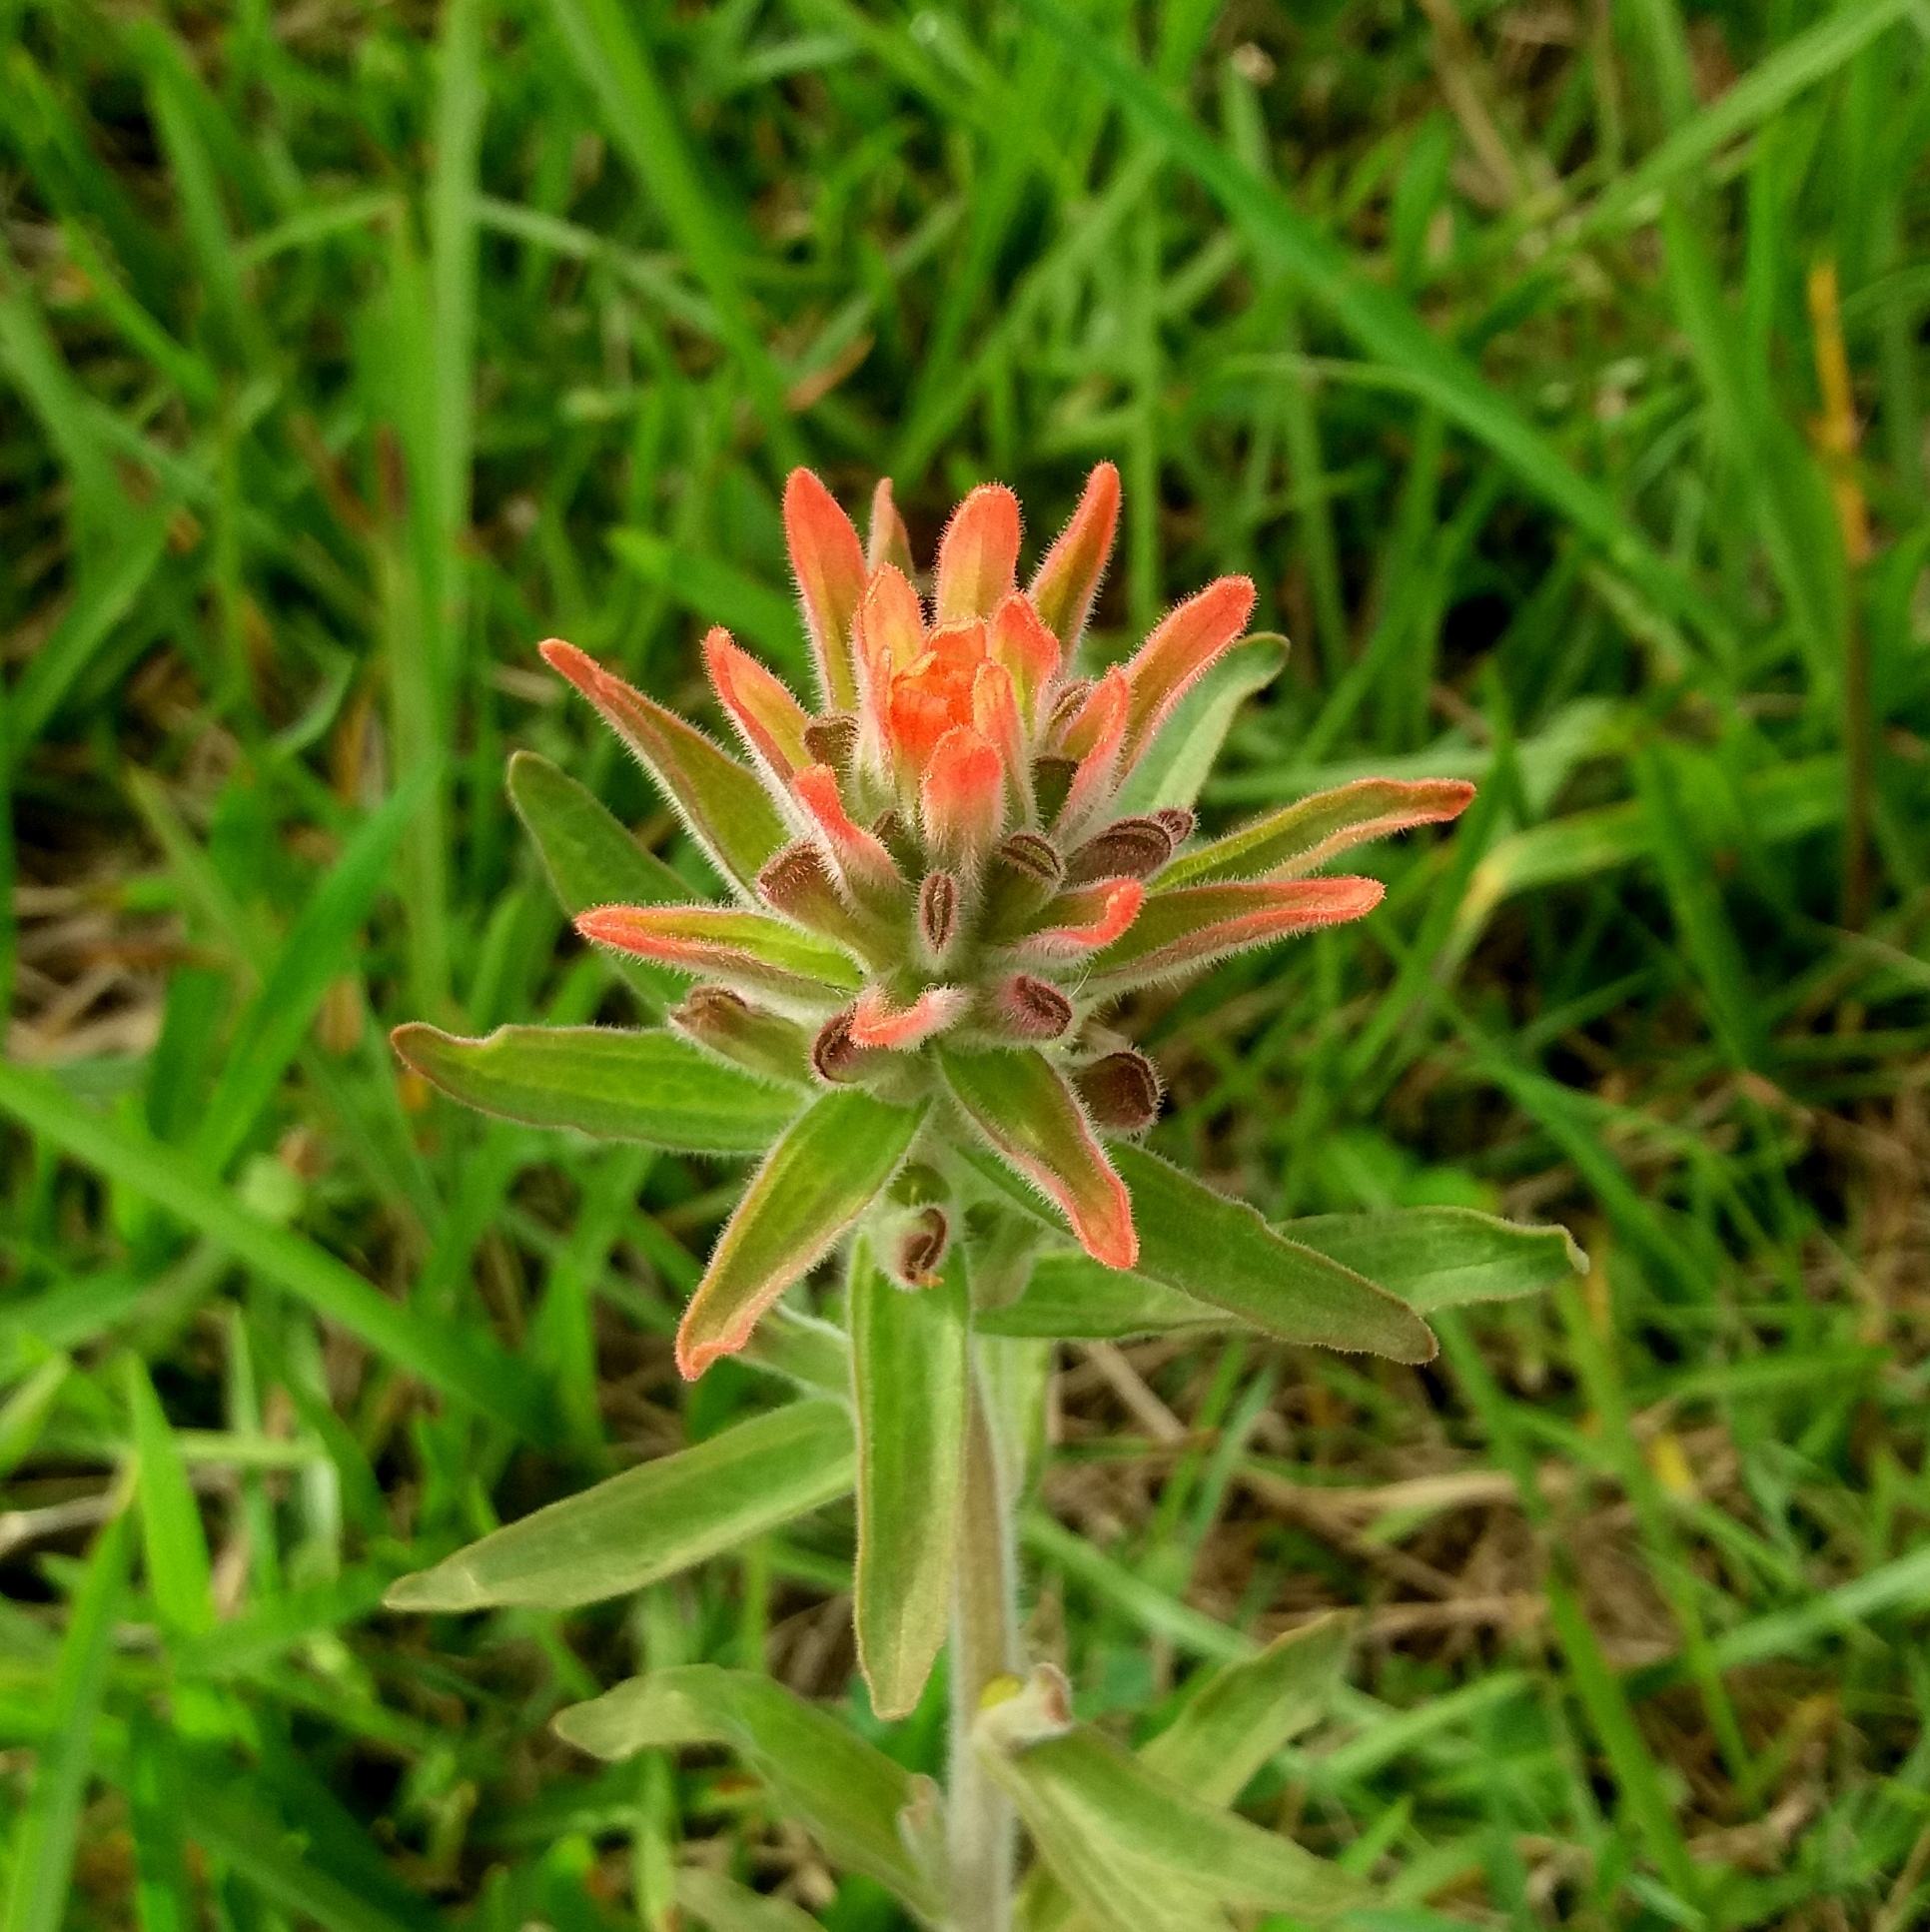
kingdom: Plantae
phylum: Tracheophyta
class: Magnoliopsida
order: Lamiales
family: Orobanchaceae
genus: Castilleja
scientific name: Castilleja arvensis
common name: Indian paintbrush
